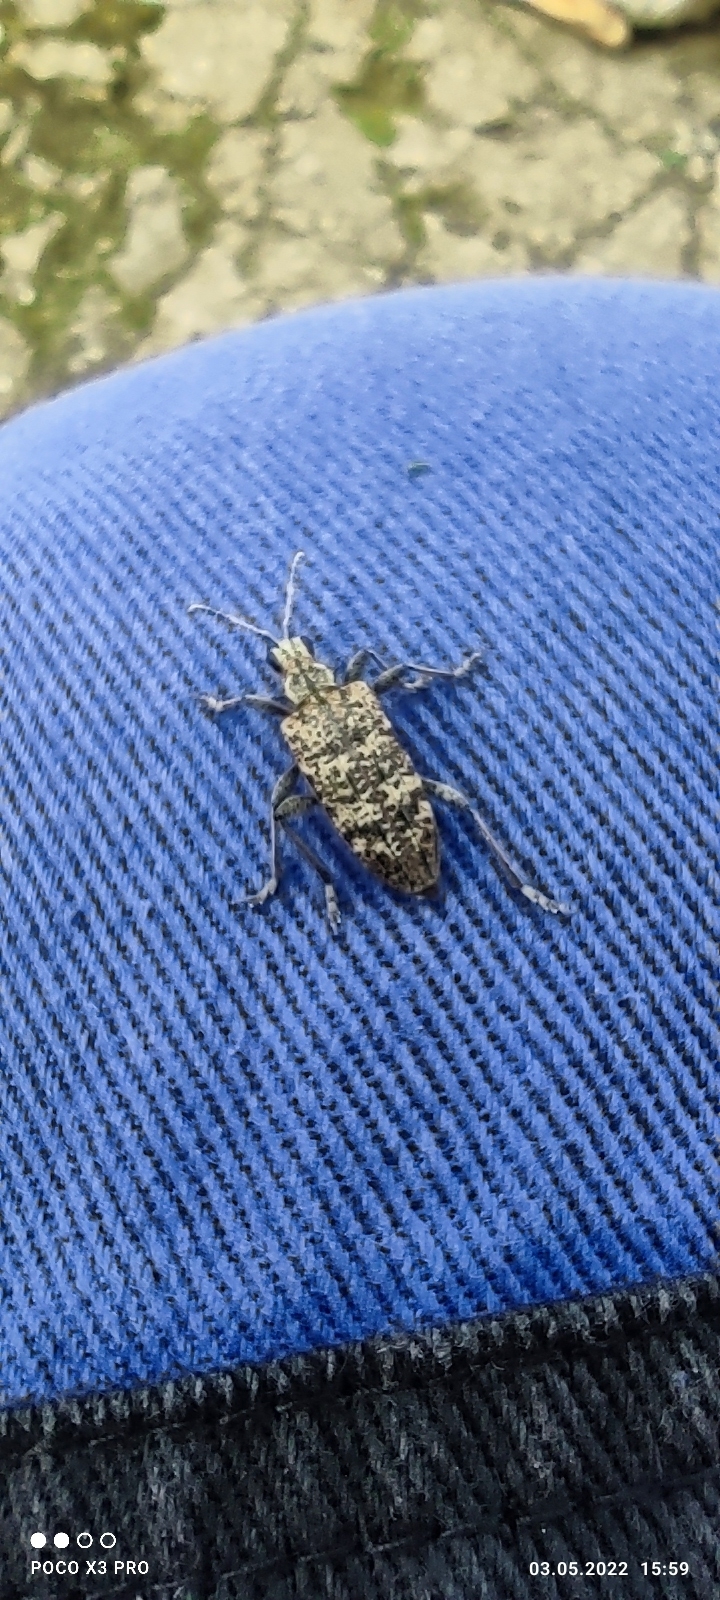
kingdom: Animalia
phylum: Arthropoda
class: Insecta
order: Coleoptera
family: Cerambycidae
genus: Rhagium
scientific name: Rhagium inquisitor
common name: Ribbed pine borer
